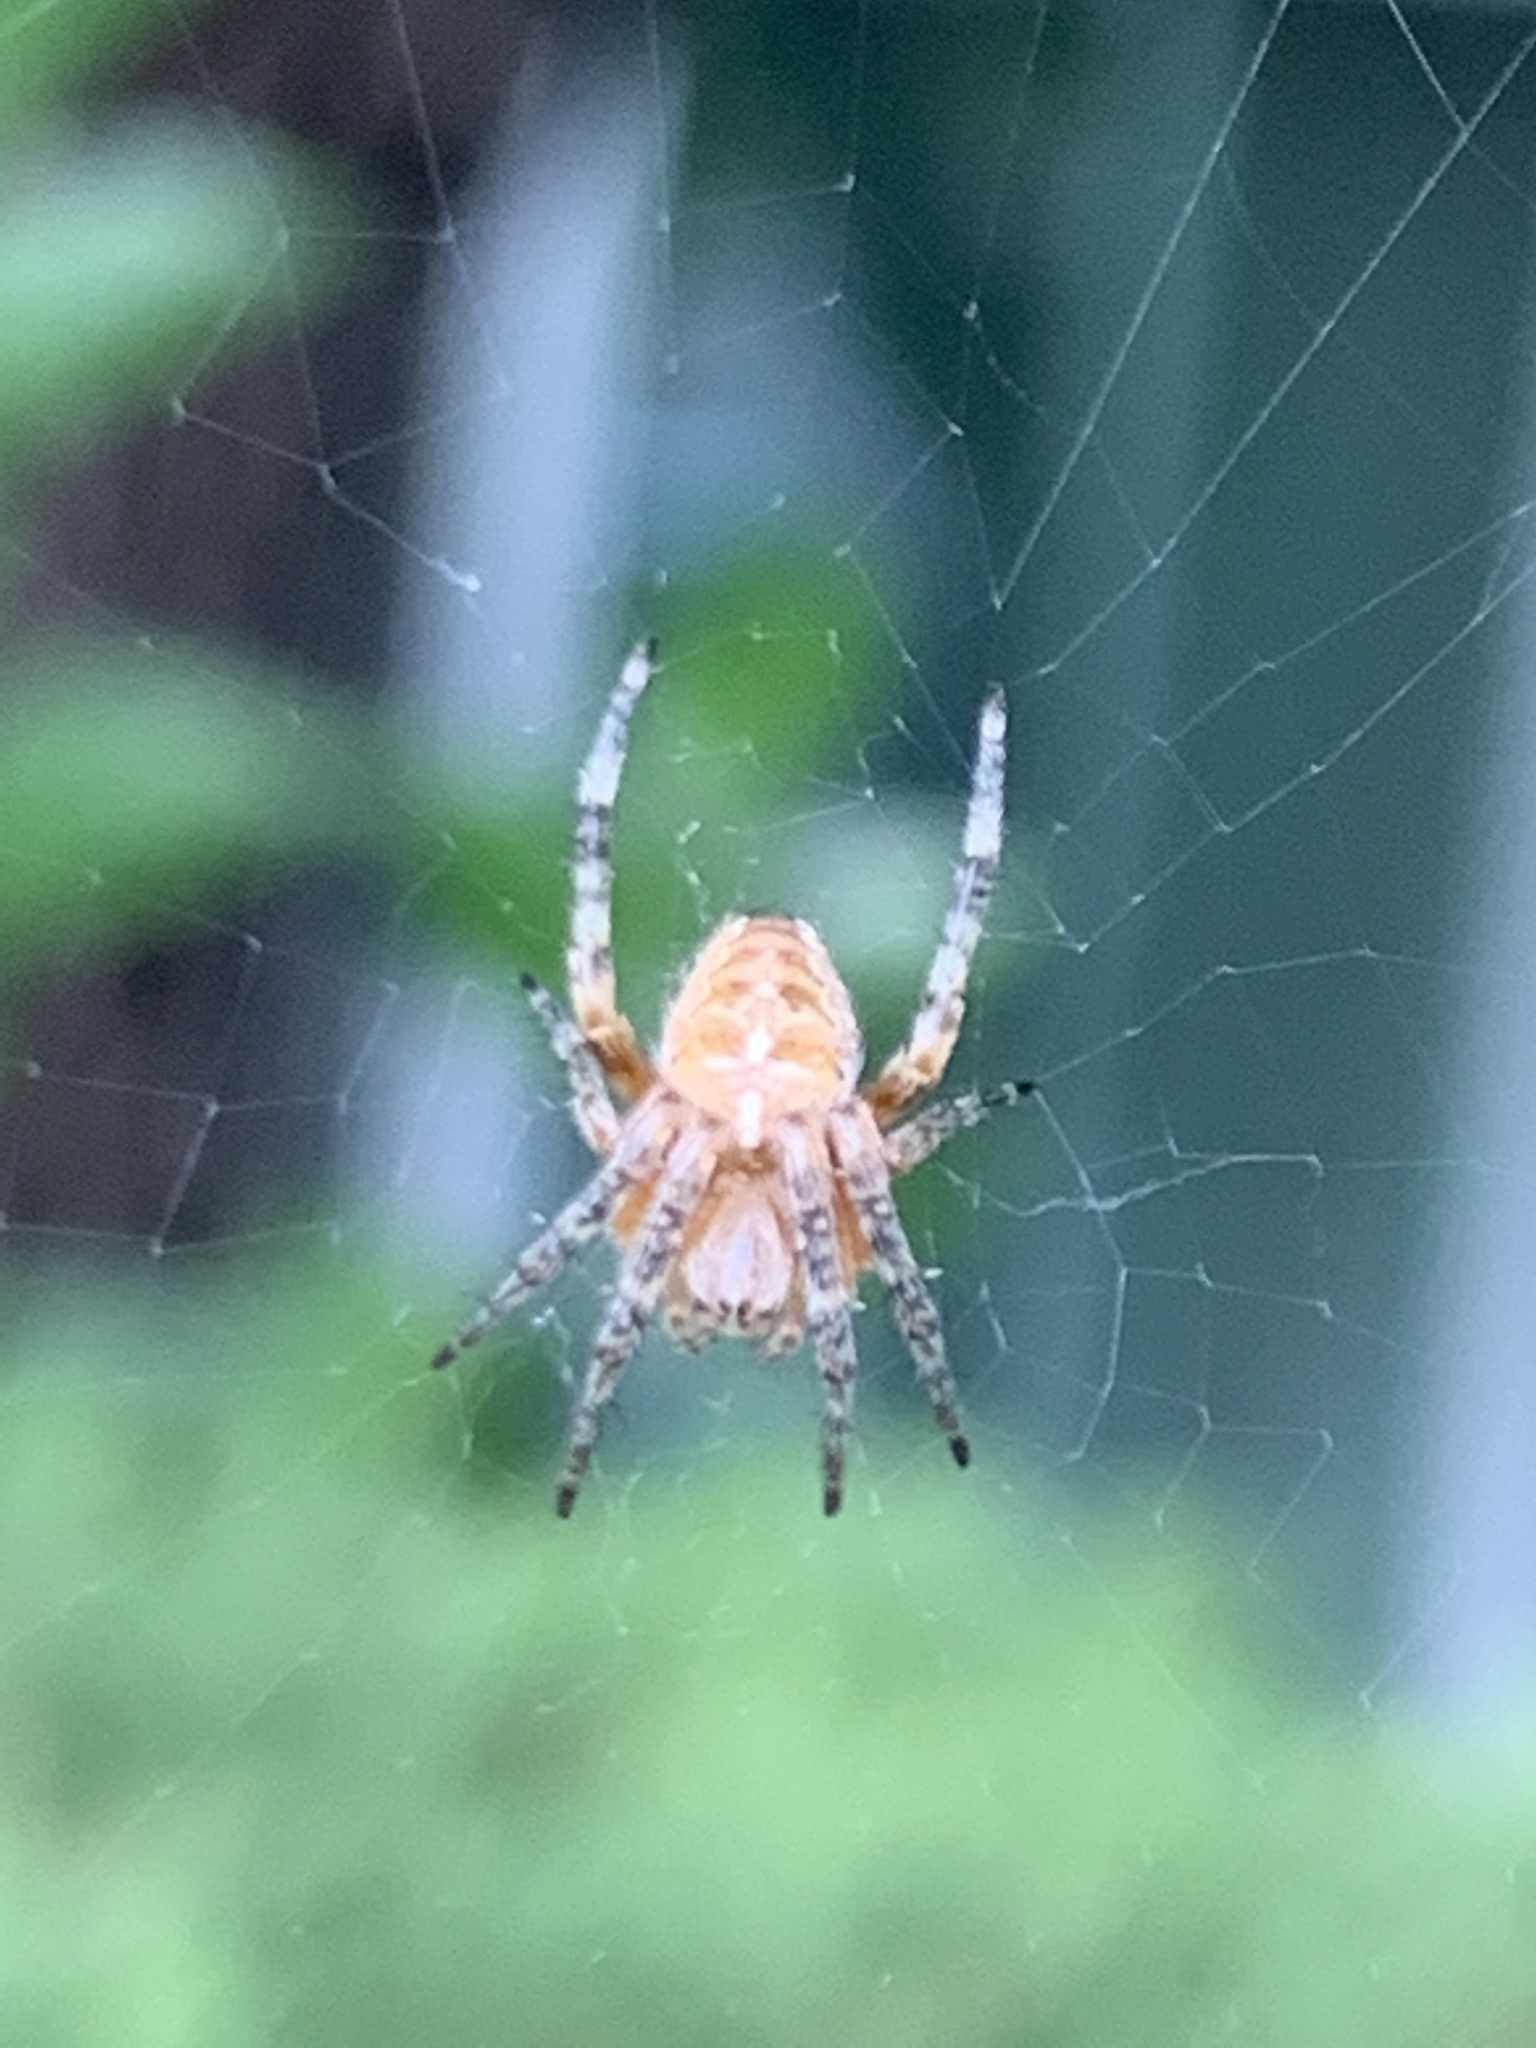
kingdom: Animalia
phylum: Arthropoda
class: Arachnida
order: Araneae
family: Araneidae
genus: Araneus
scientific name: Araneus diadematus
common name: Cross orbweaver
